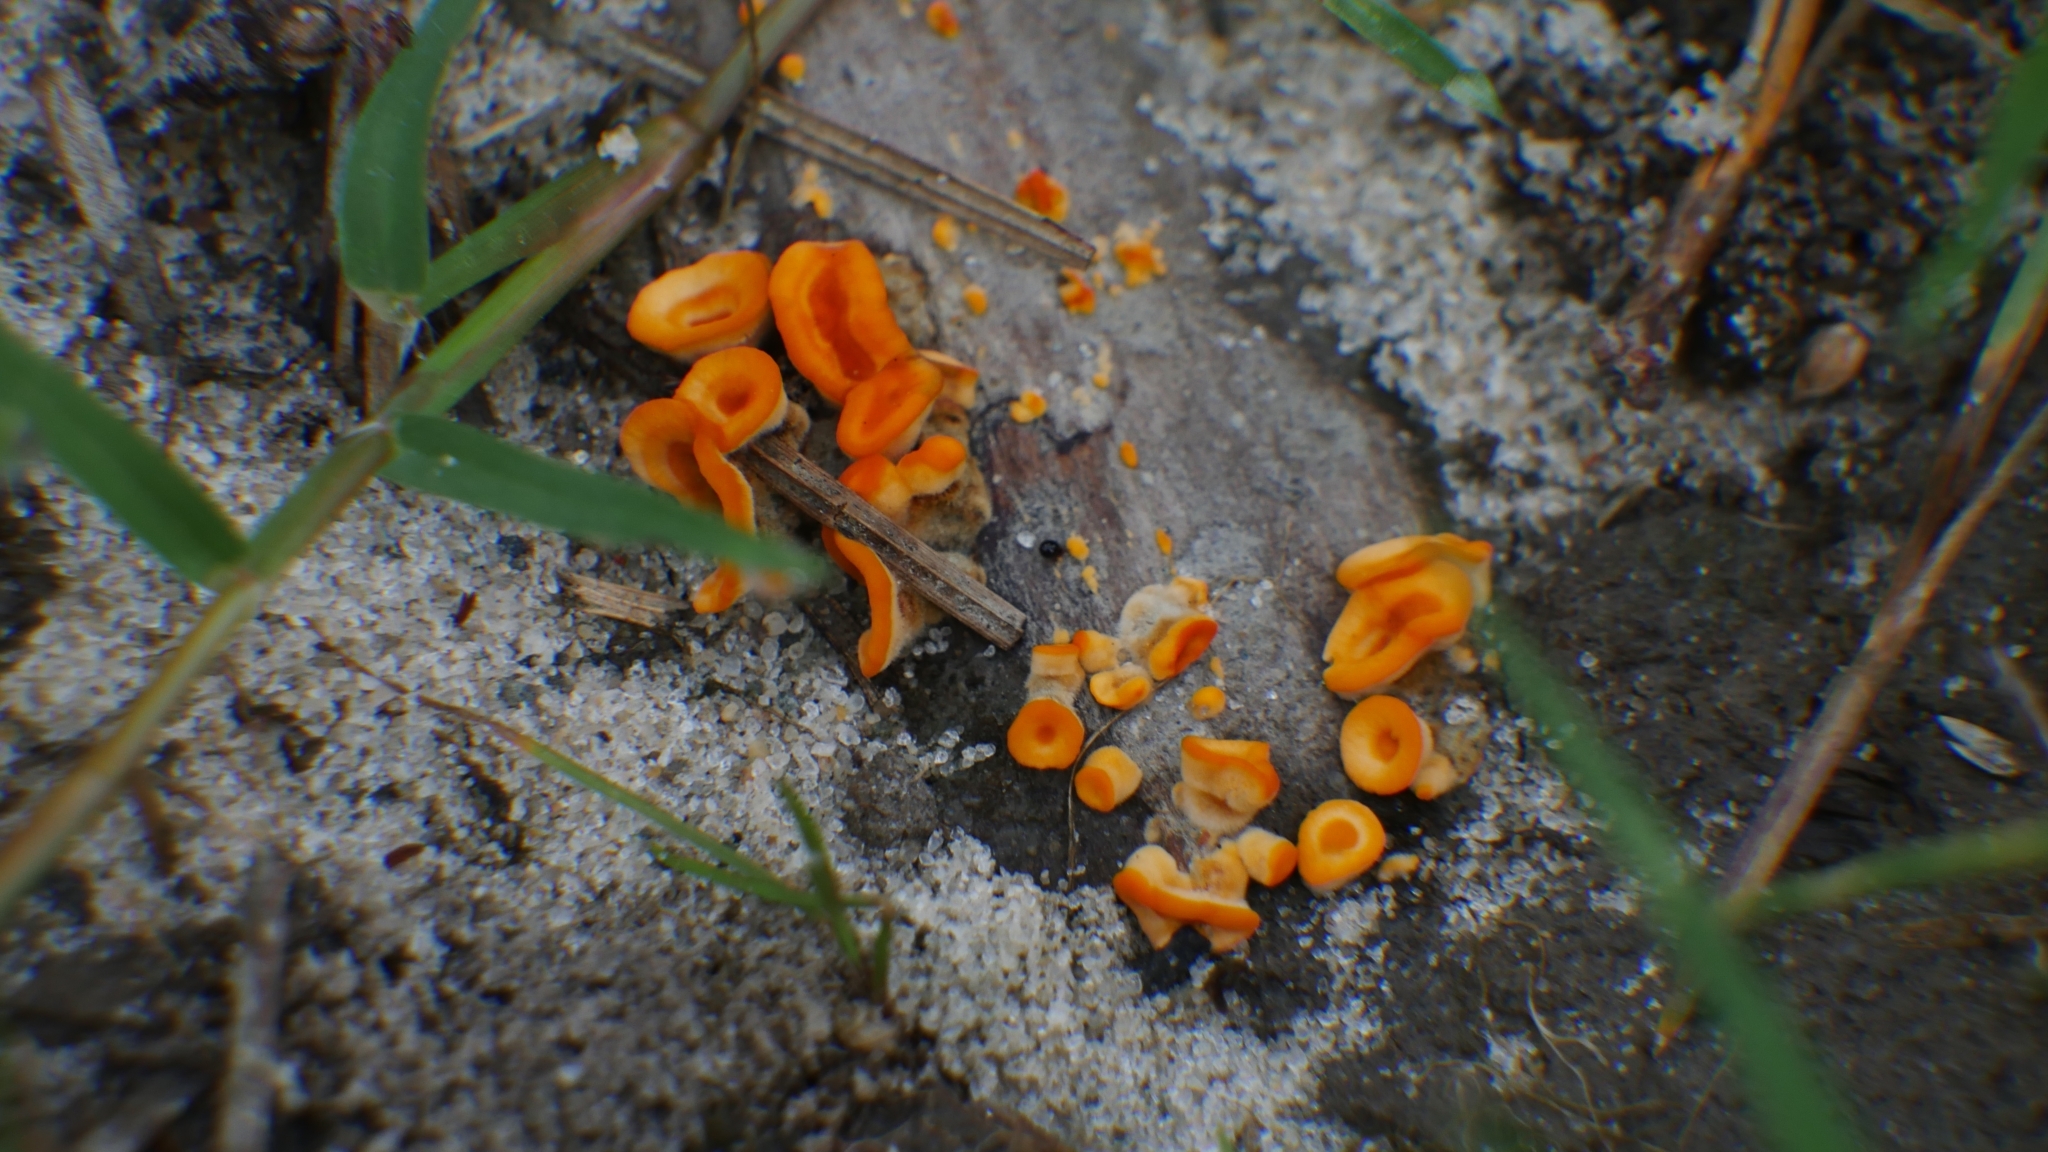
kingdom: Fungi
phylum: Basidiomycota
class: Agaricomycetes
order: Russulales
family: Stereaceae
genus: Stereum
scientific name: Stereum
